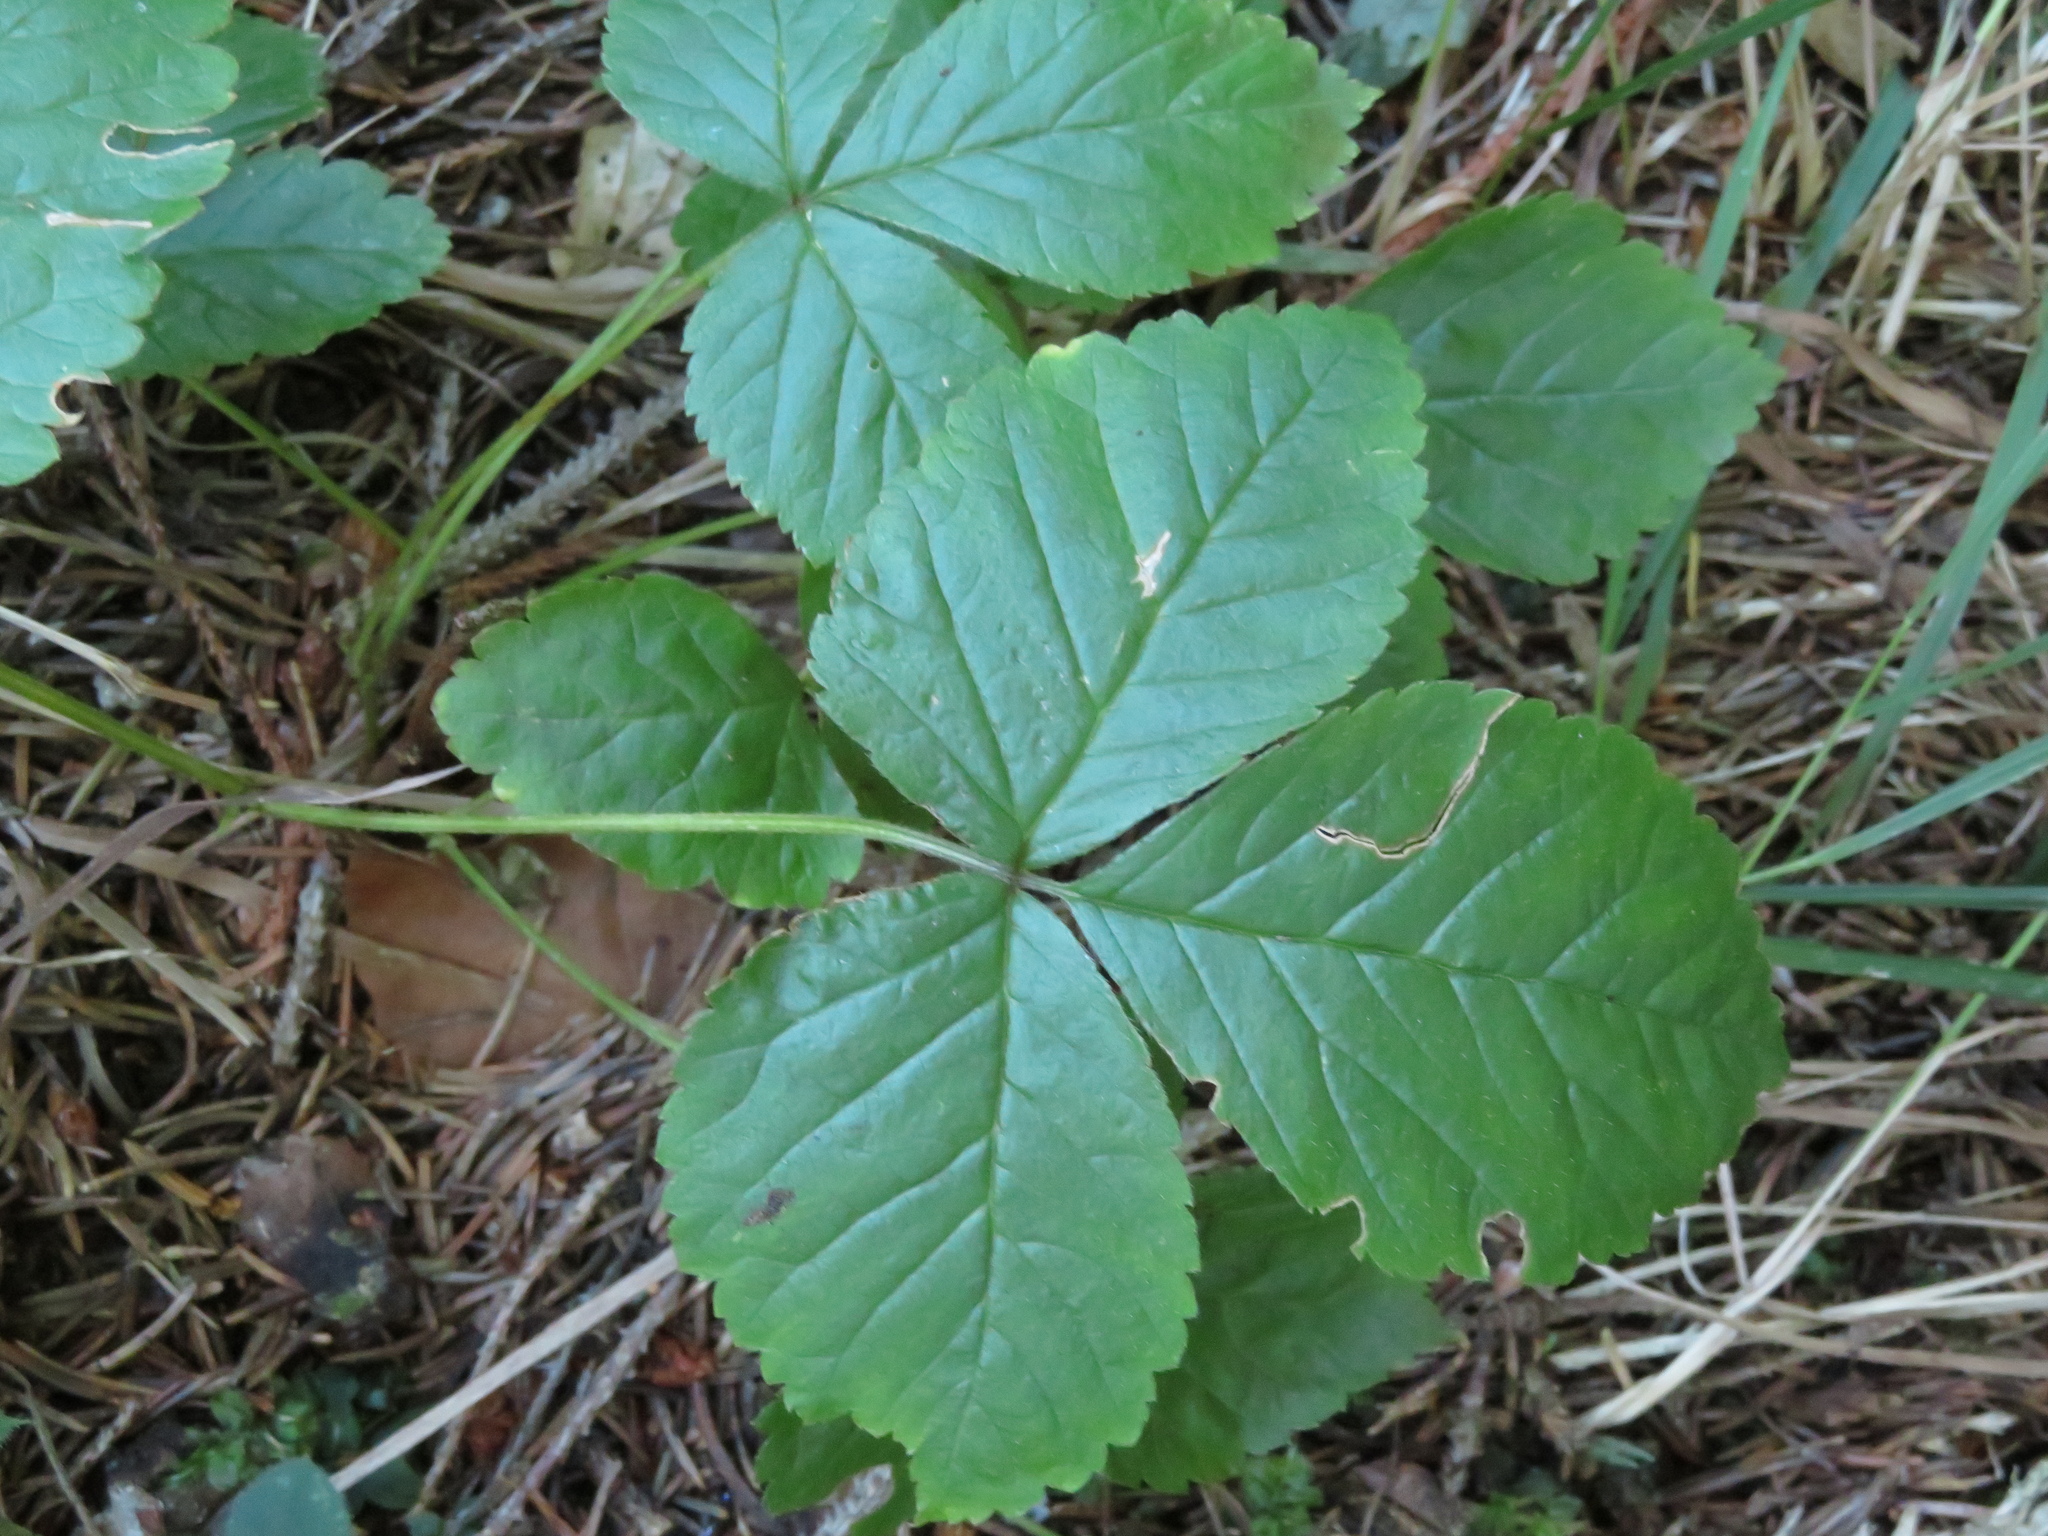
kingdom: Plantae
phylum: Tracheophyta
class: Magnoliopsida
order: Rosales
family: Rosaceae
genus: Rubus
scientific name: Rubus saxatilis
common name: Stone bramble
